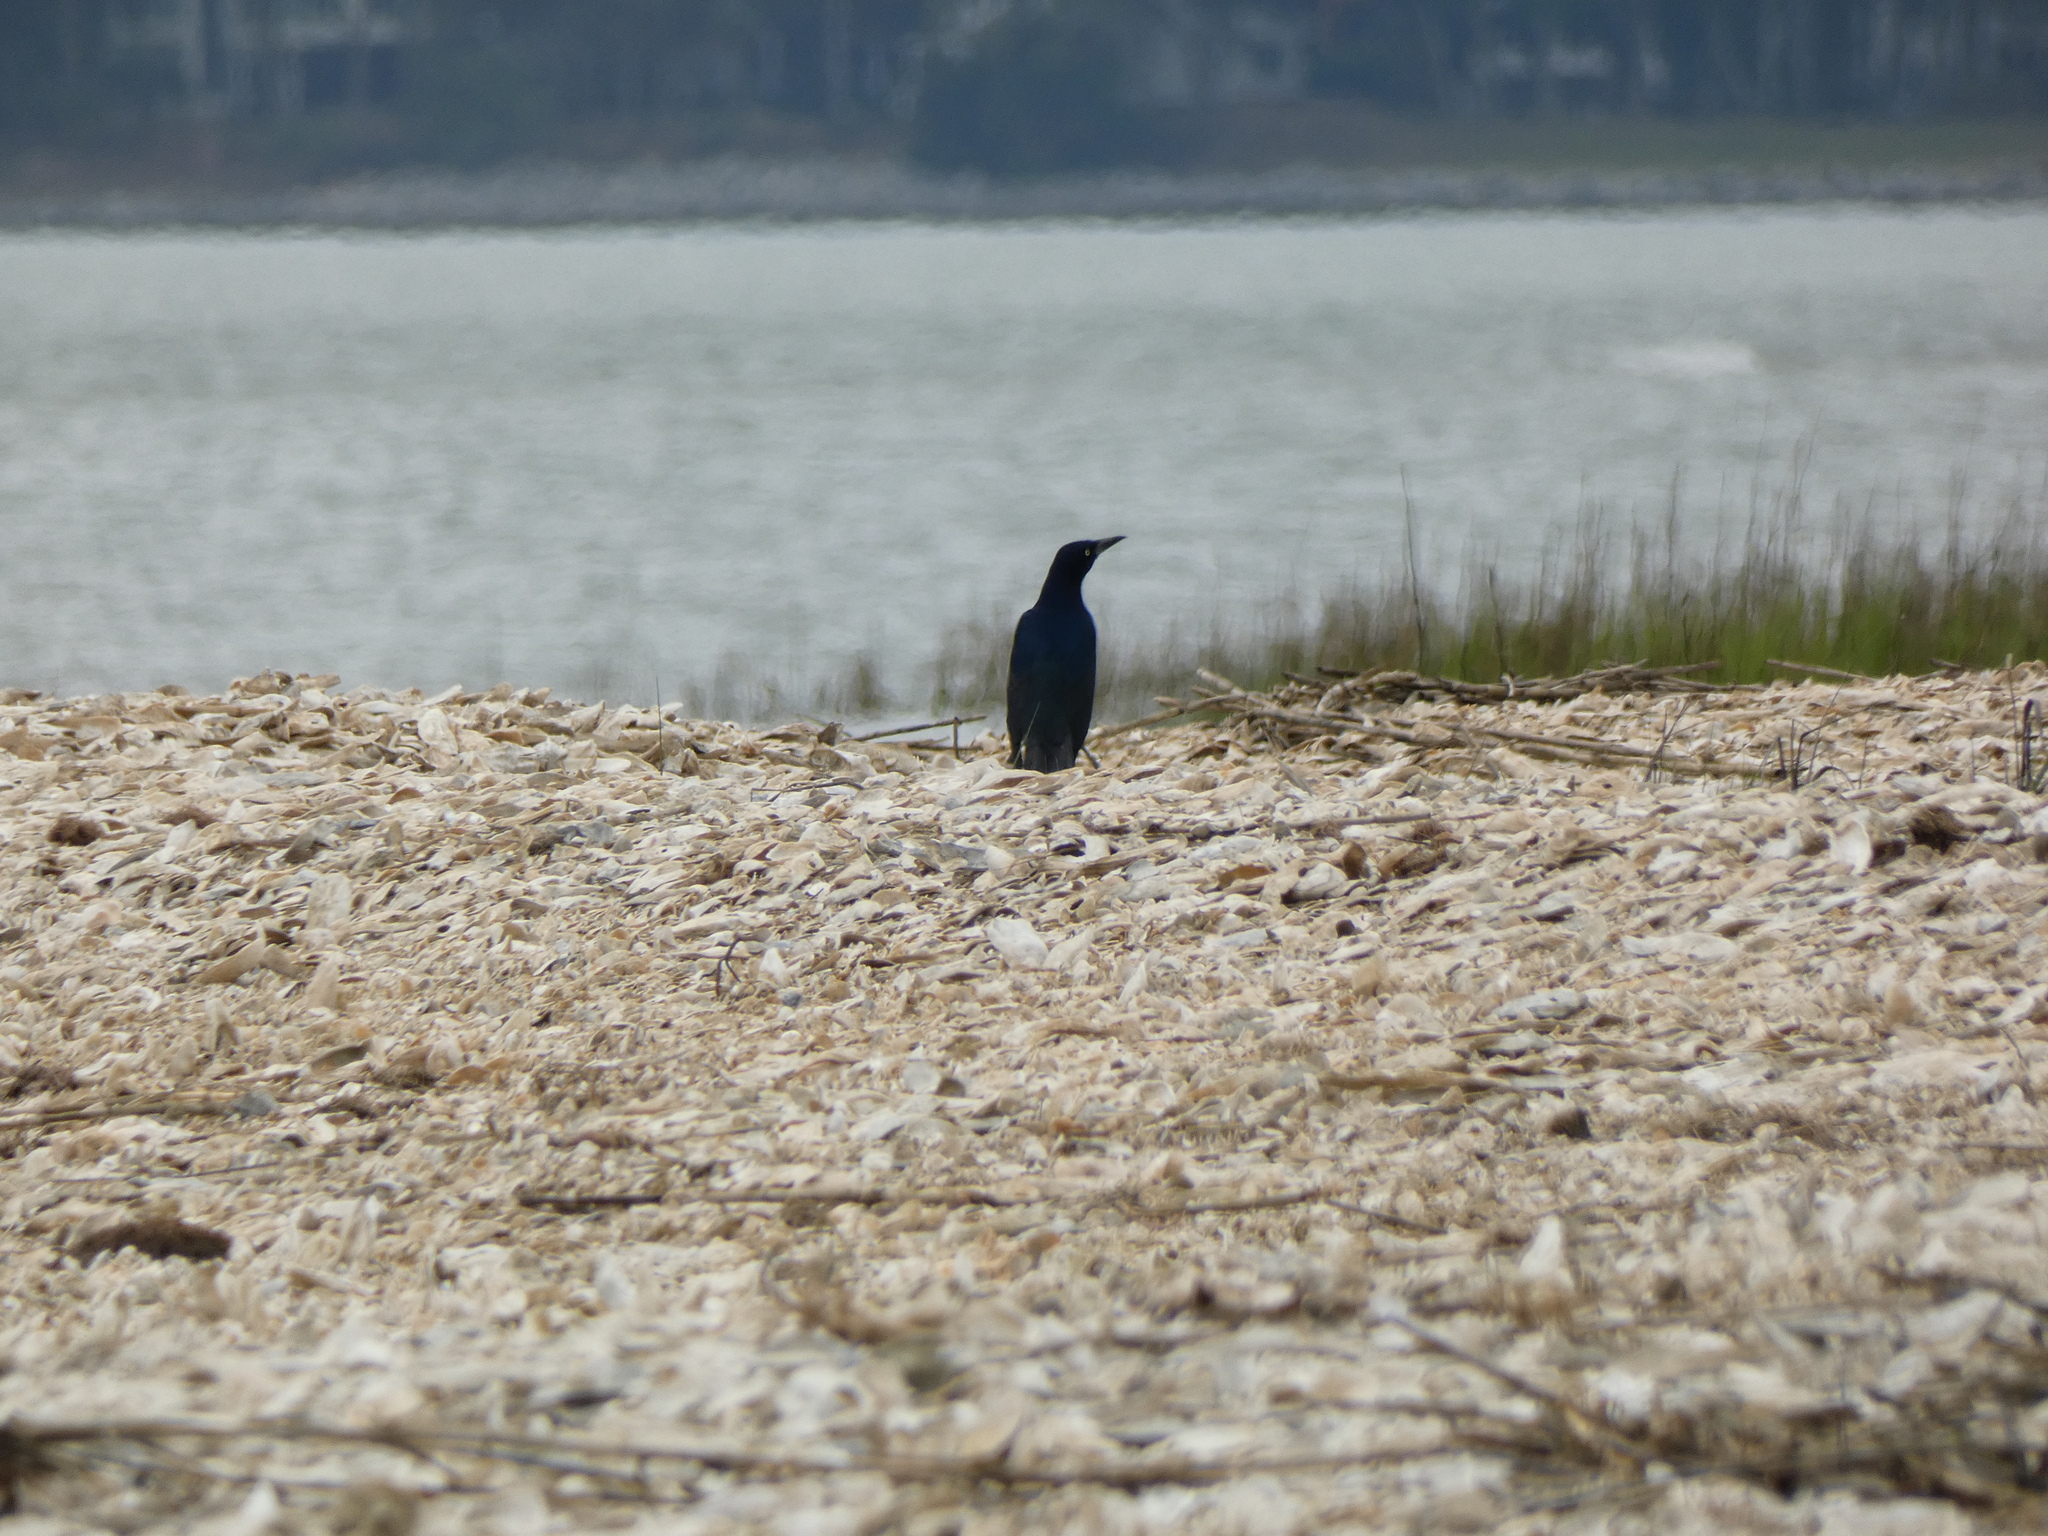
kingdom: Animalia
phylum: Chordata
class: Aves
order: Passeriformes
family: Icteridae
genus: Quiscalus
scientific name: Quiscalus major
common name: Boat-tailed grackle
